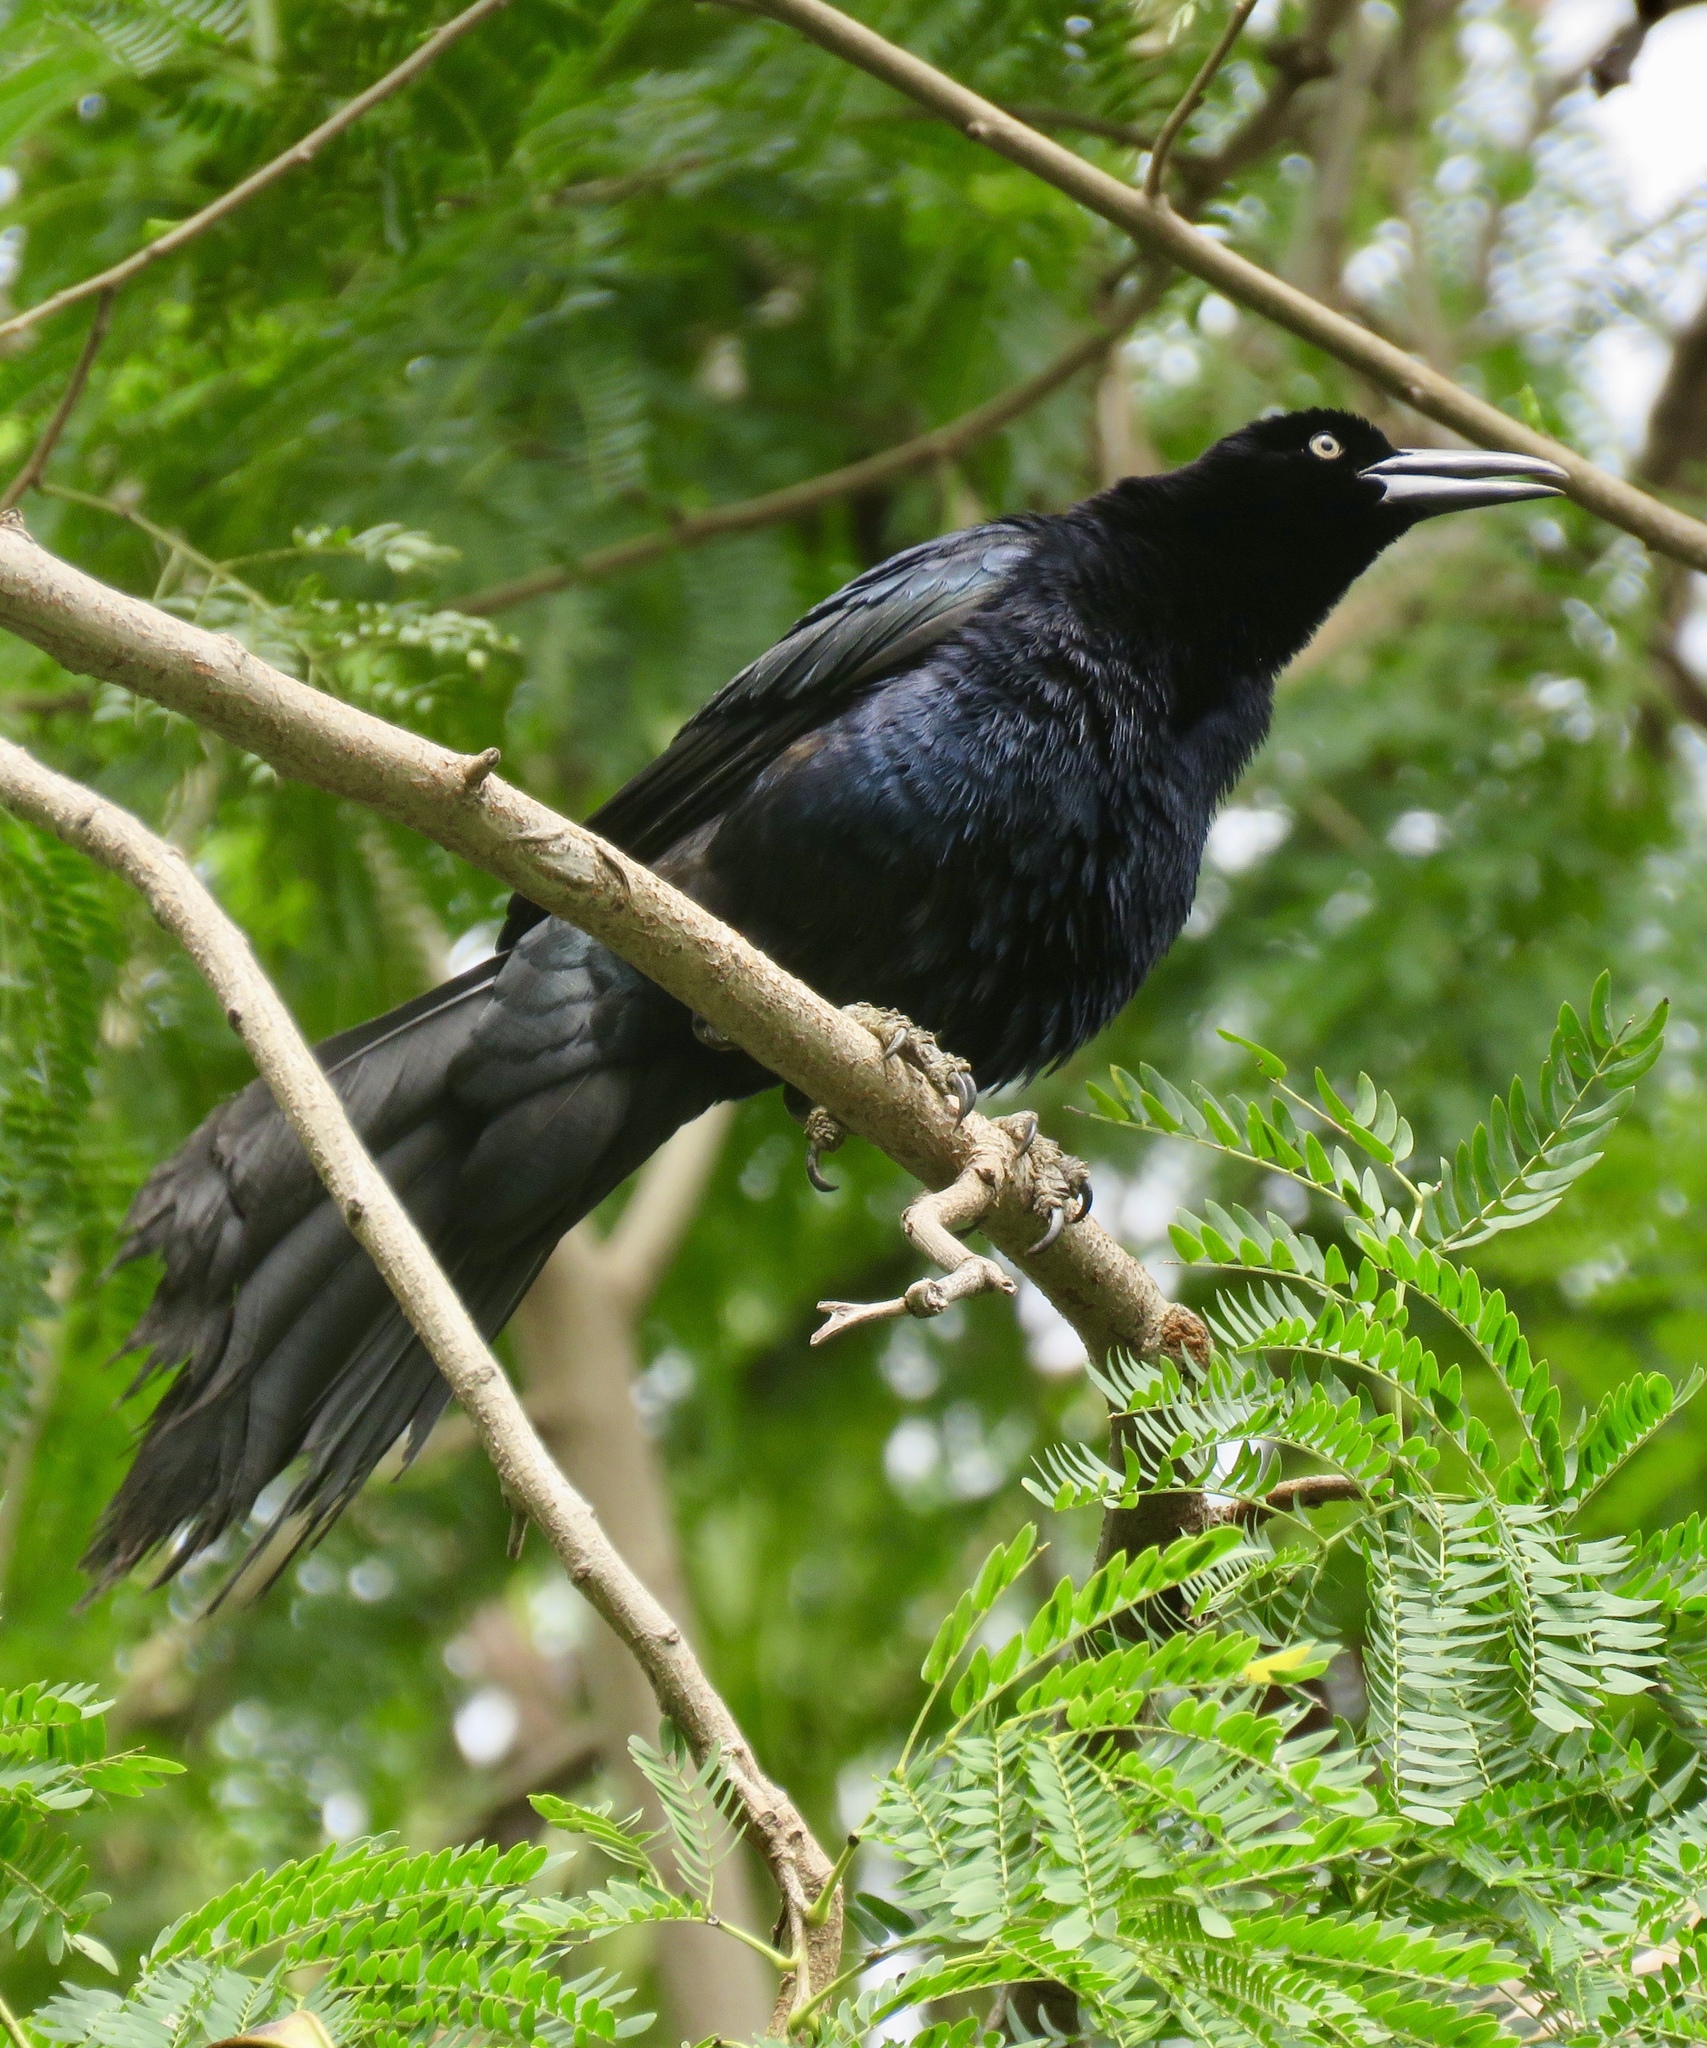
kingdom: Animalia
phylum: Chordata
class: Aves
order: Passeriformes
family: Icteridae
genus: Quiscalus
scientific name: Quiscalus mexicanus
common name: Great-tailed grackle
